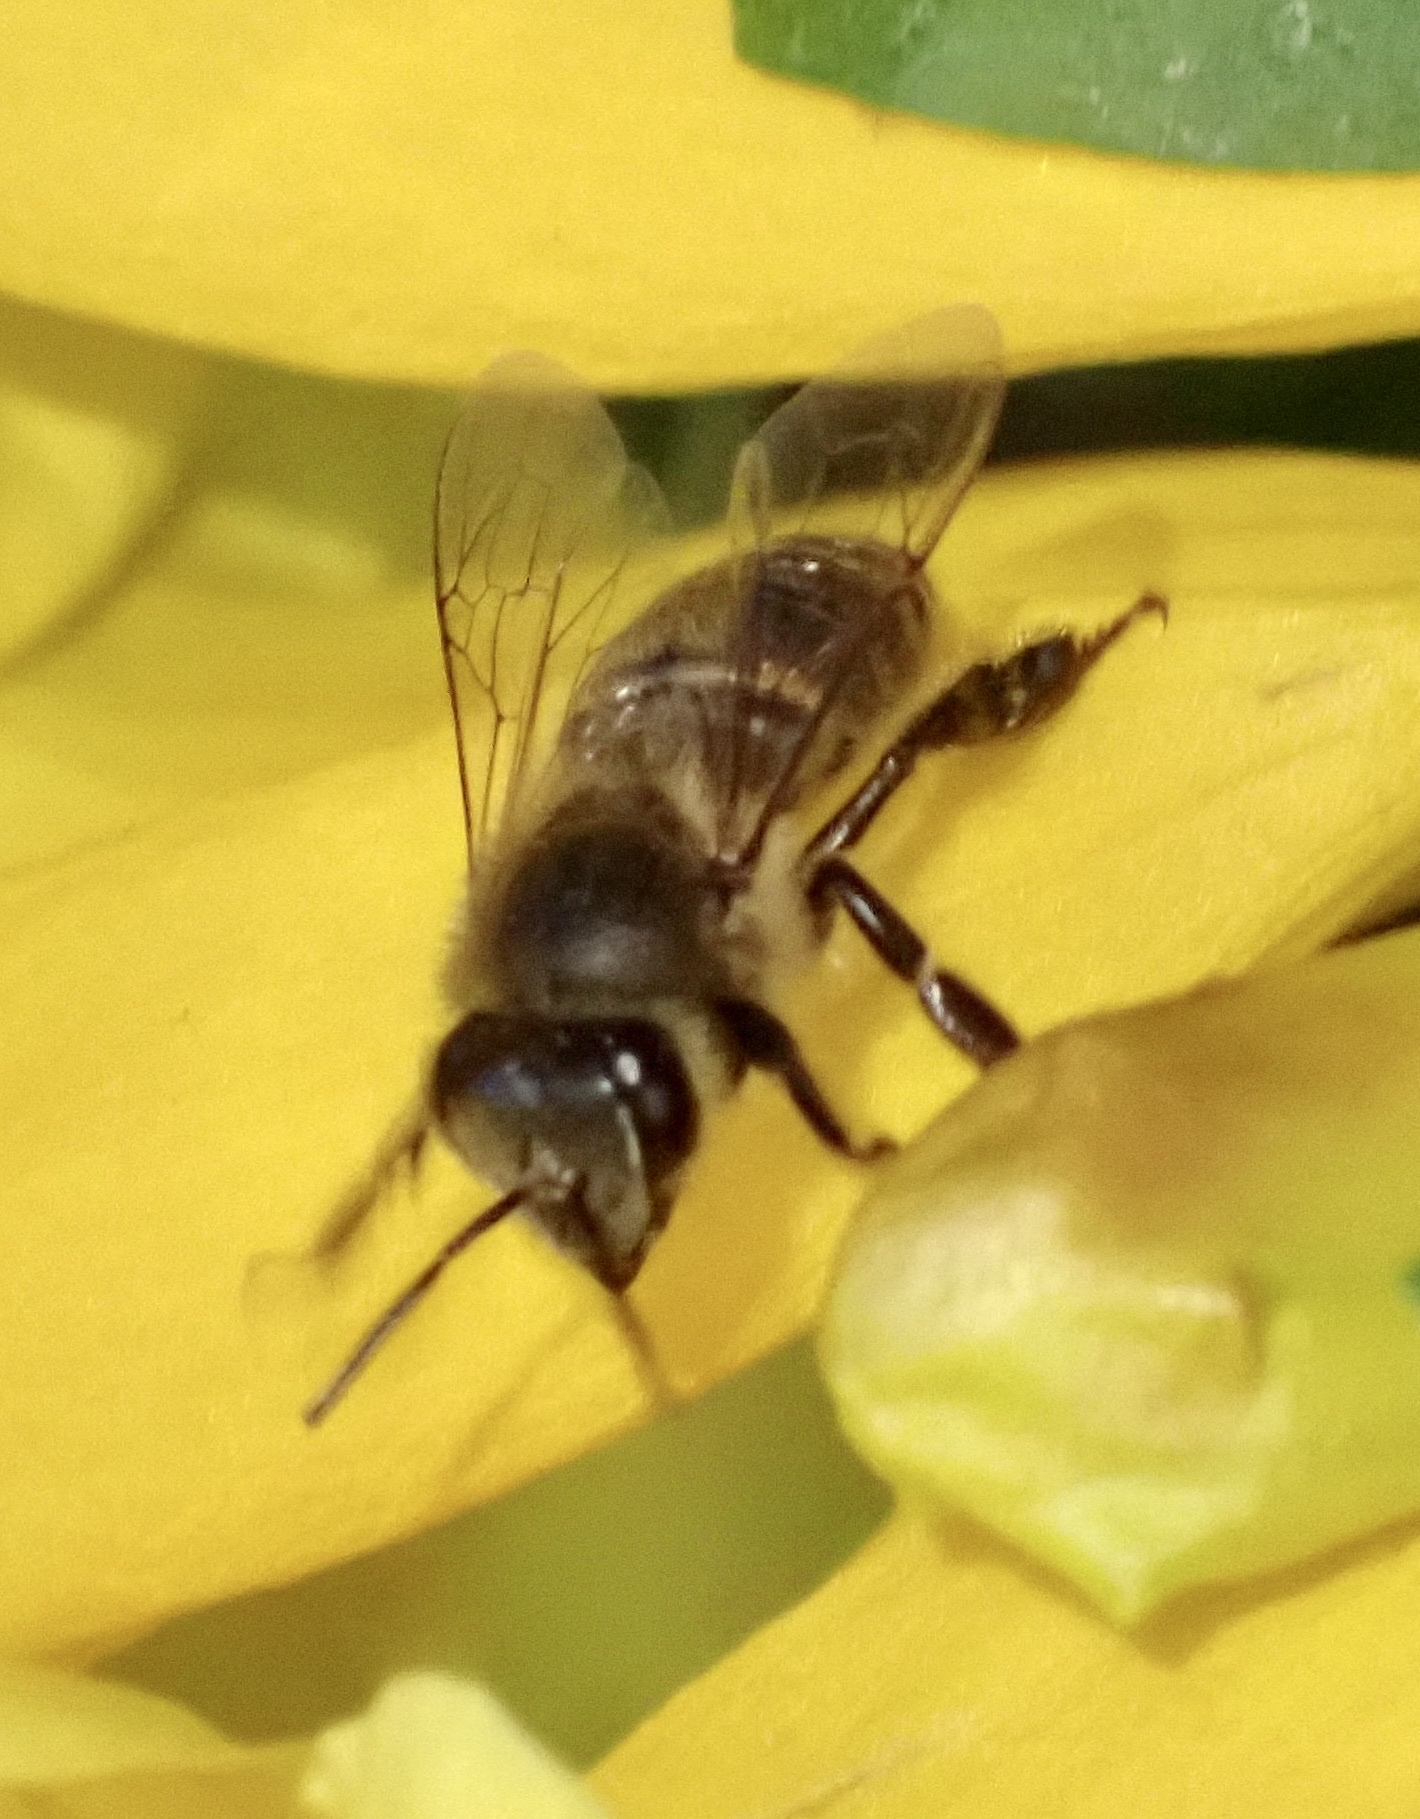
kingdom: Animalia
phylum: Arthropoda
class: Insecta
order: Hymenoptera
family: Apidae
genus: Apis
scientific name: Apis mellifera
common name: Honey bee
